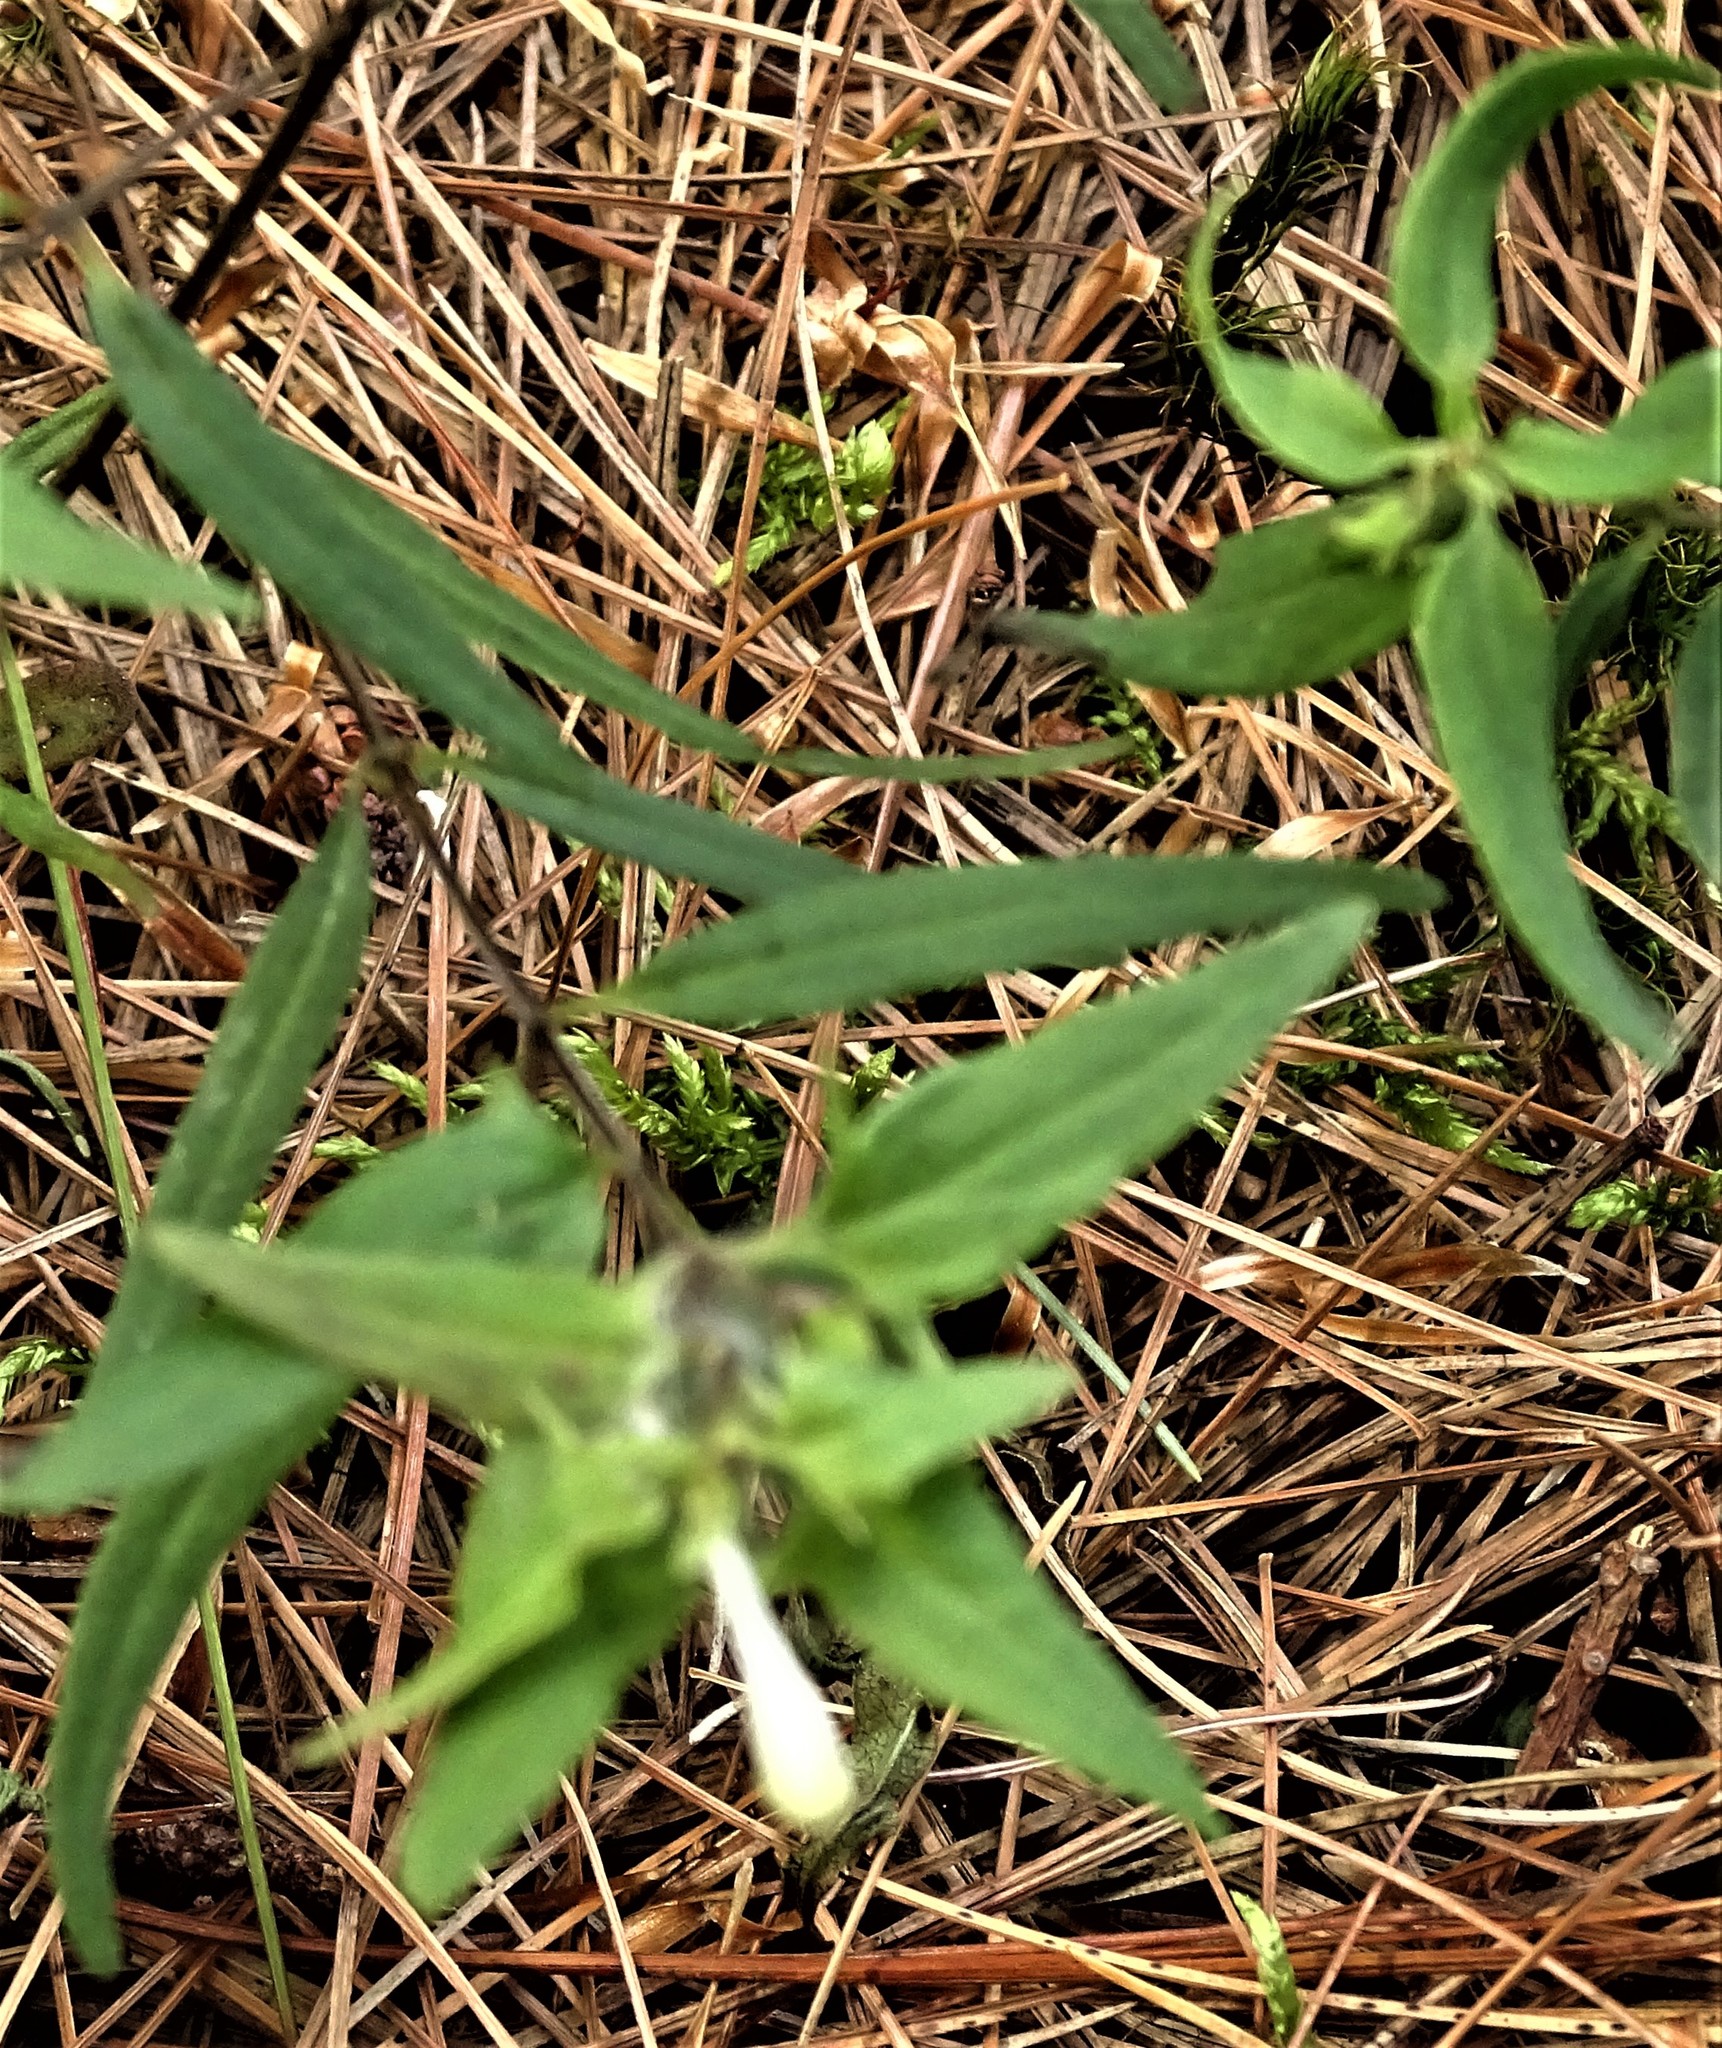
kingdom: Plantae
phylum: Tracheophyta
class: Magnoliopsida
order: Lamiales
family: Orobanchaceae
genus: Melampyrum
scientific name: Melampyrum lineare
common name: American cow-wheat
